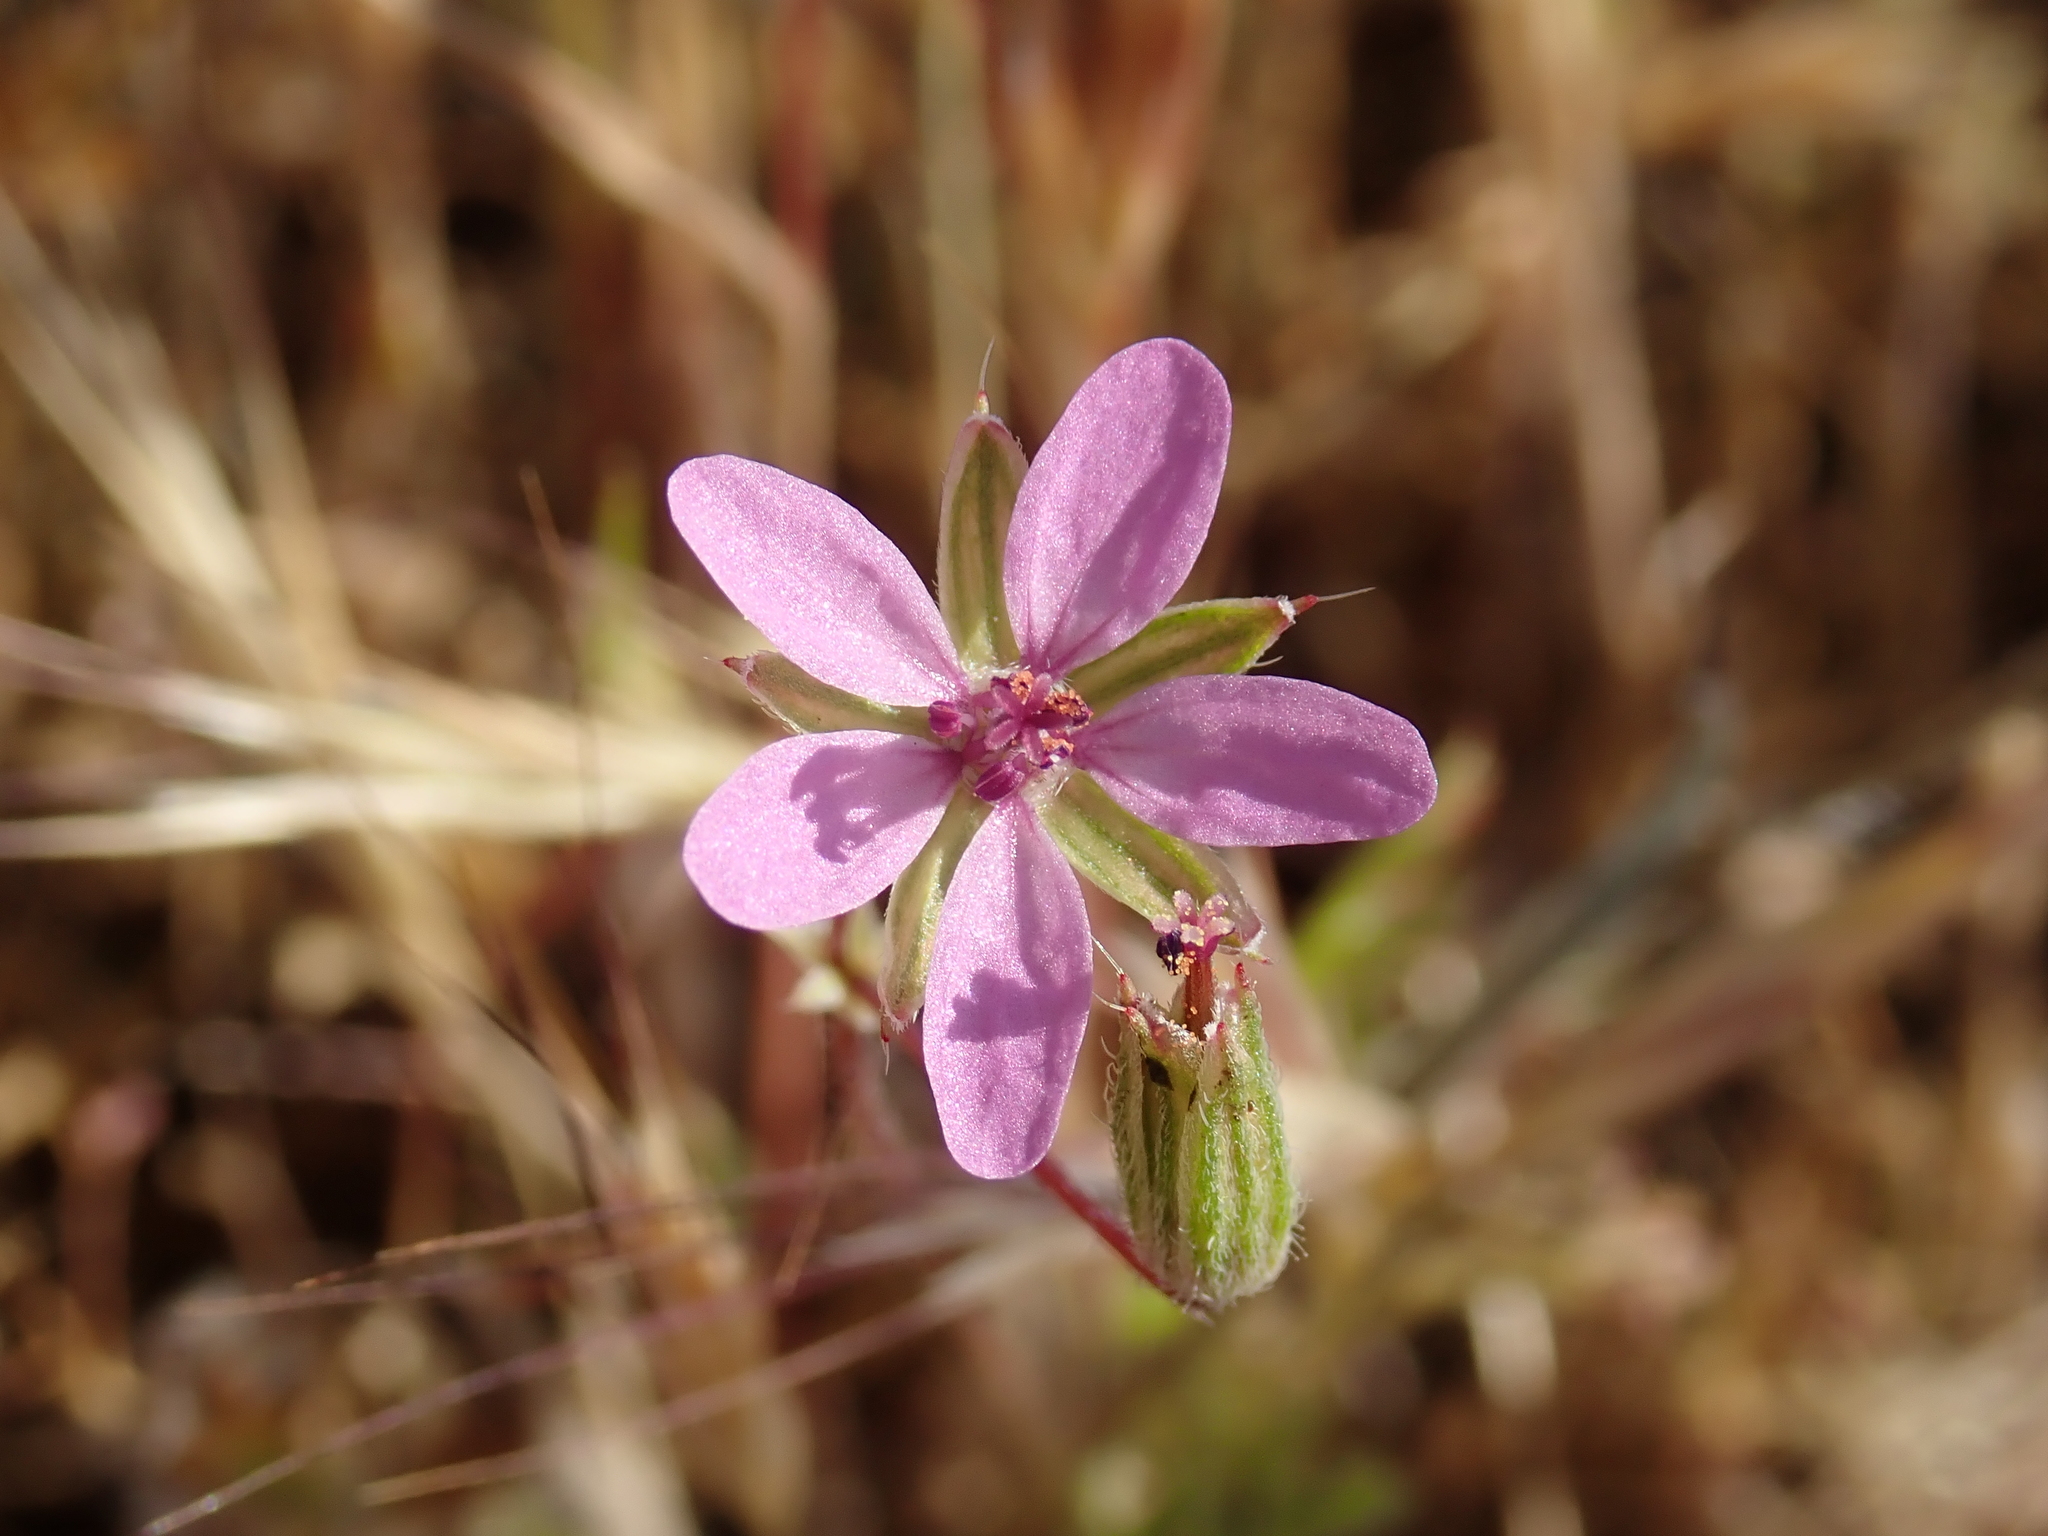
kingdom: Plantae
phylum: Tracheophyta
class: Magnoliopsida
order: Geraniales
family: Geraniaceae
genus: Erodium
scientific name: Erodium cicutarium
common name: Common stork's-bill
